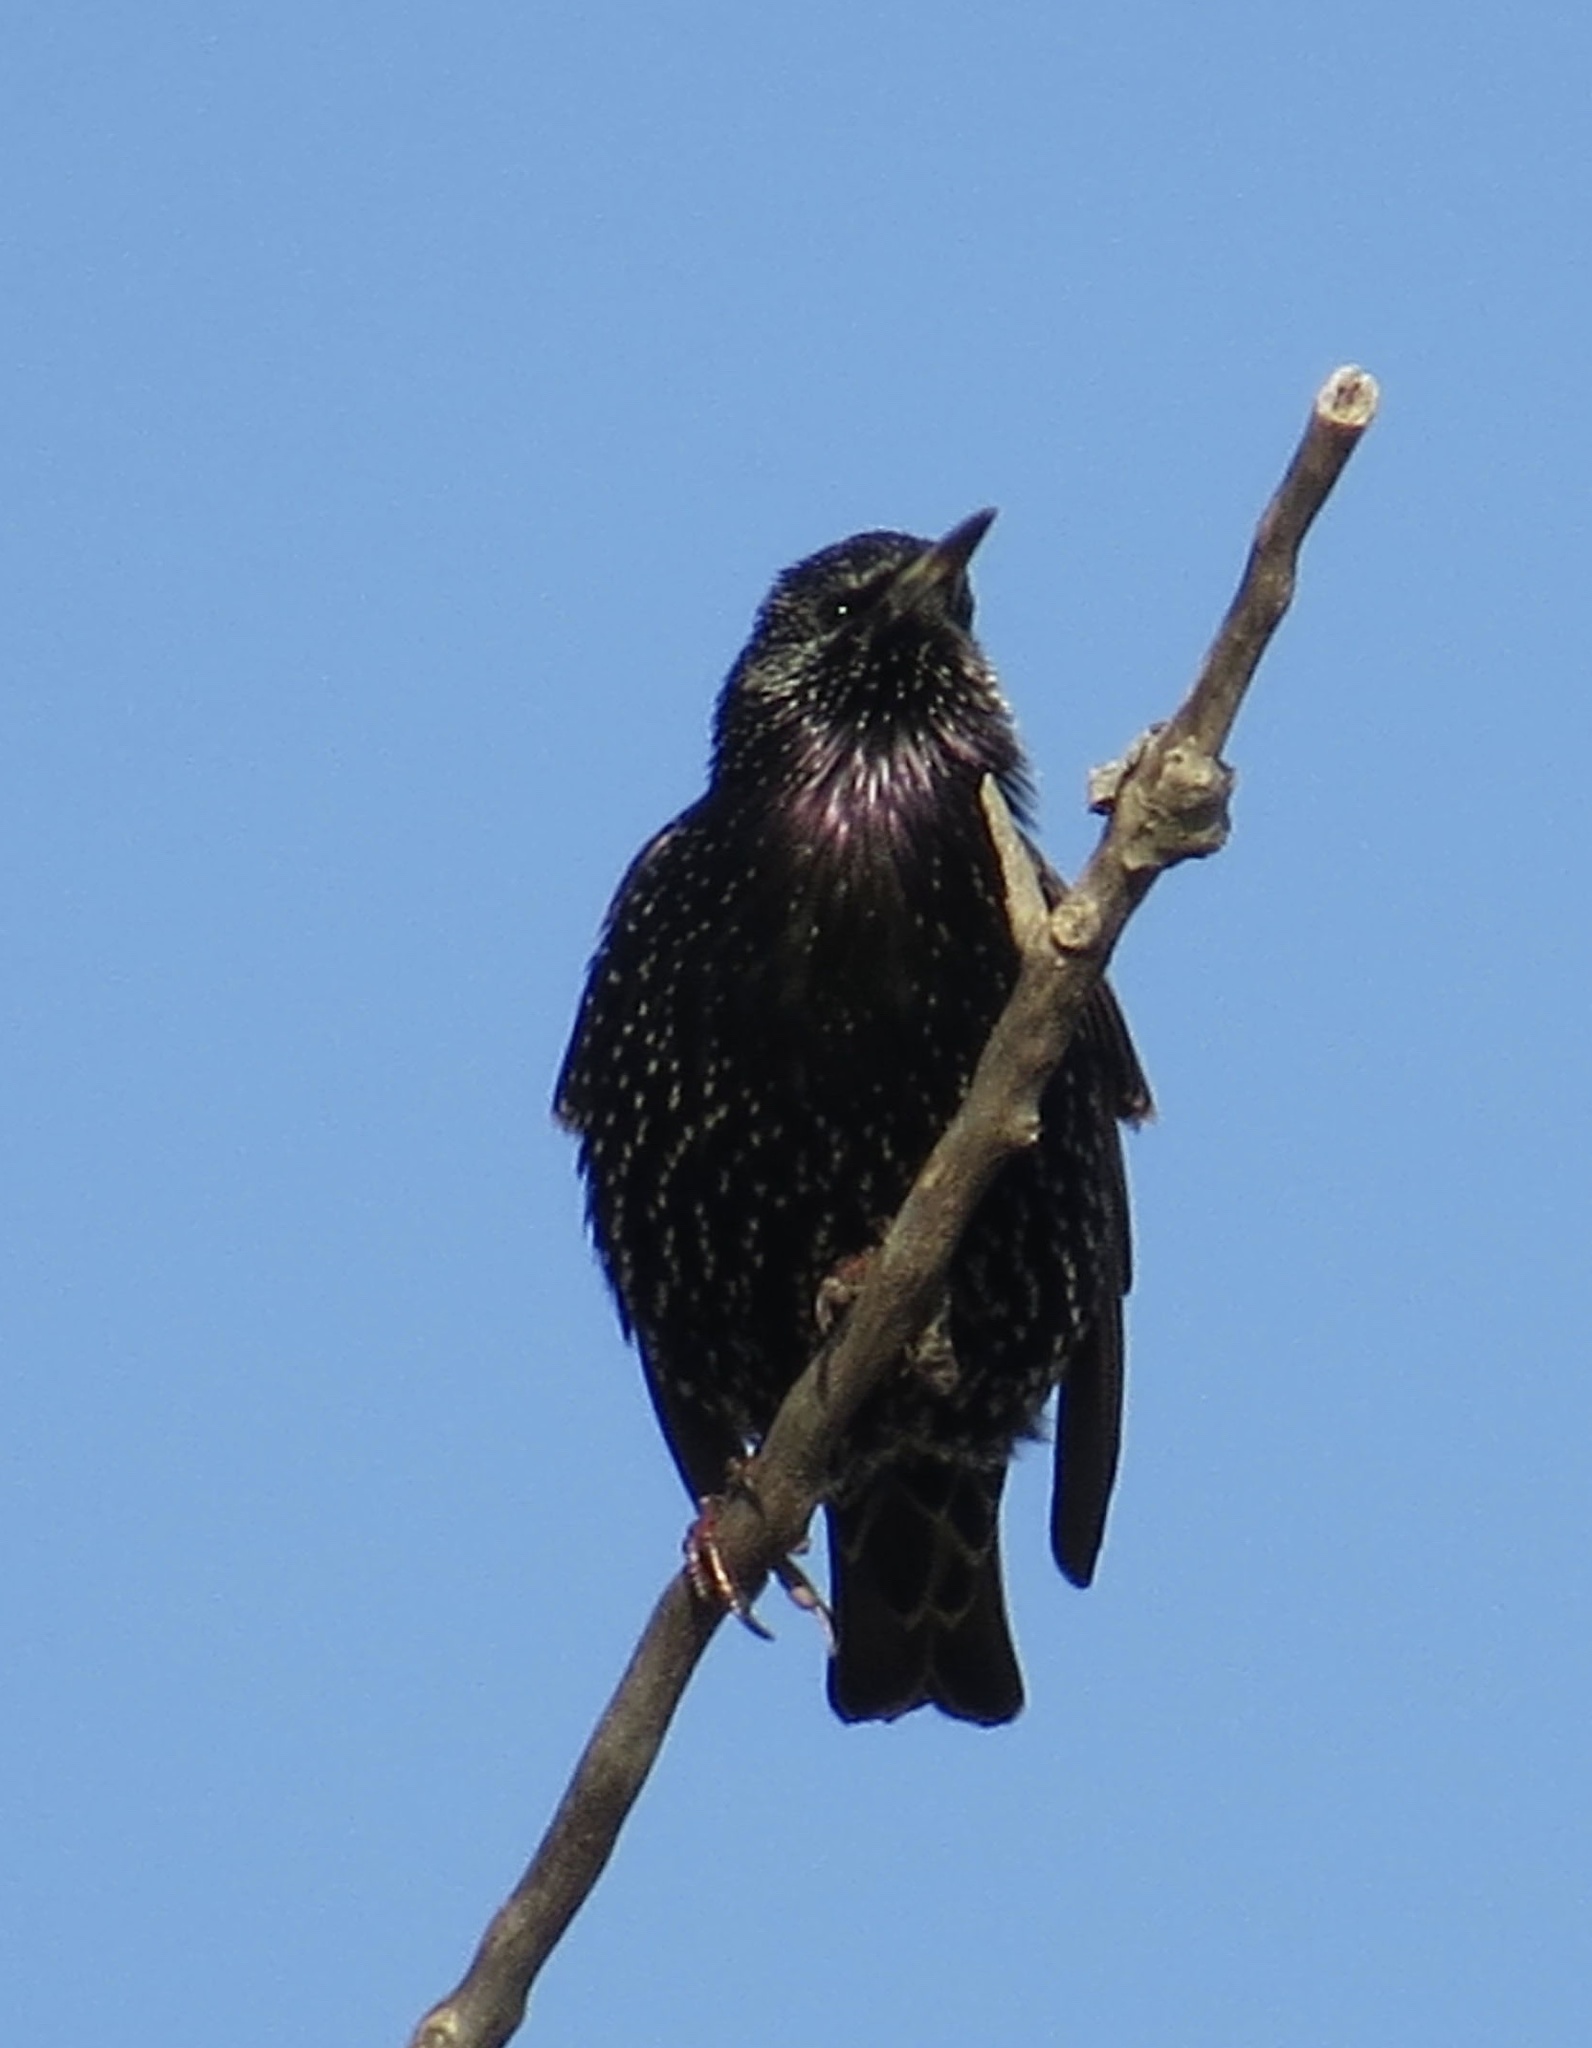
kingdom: Animalia
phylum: Chordata
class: Aves
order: Passeriformes
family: Sturnidae
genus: Sturnus
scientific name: Sturnus vulgaris
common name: Common starling
